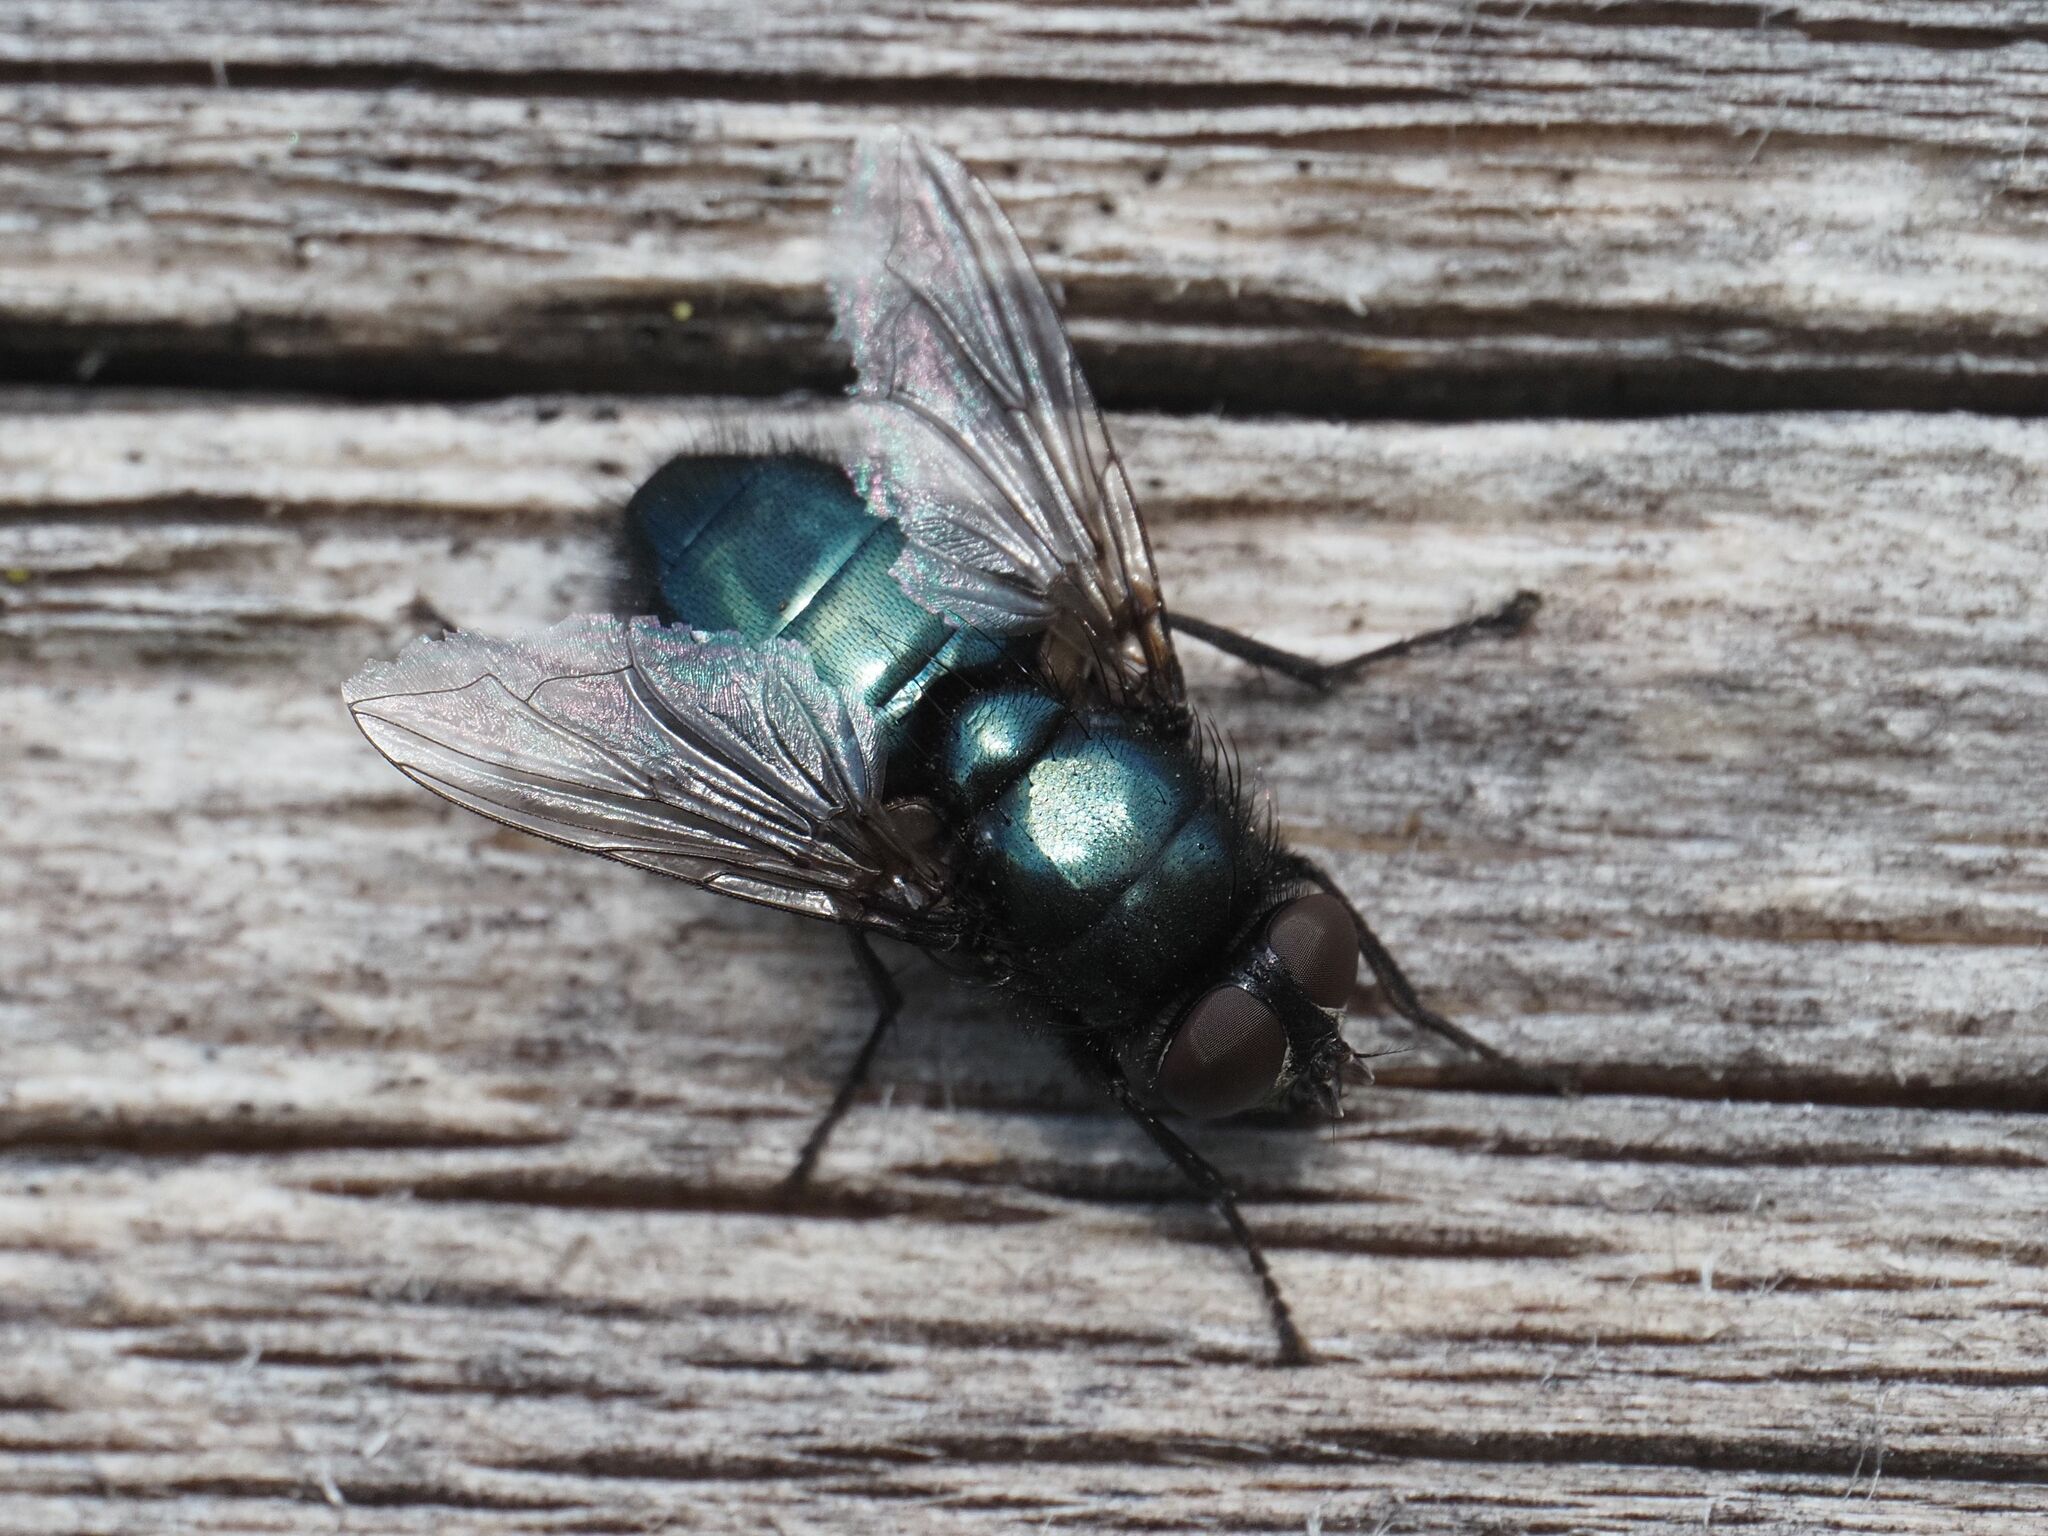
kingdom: Animalia
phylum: Arthropoda
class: Insecta
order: Diptera
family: Calliphoridae
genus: Protophormia
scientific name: Protophormia terraenovae
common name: Blackbottle
